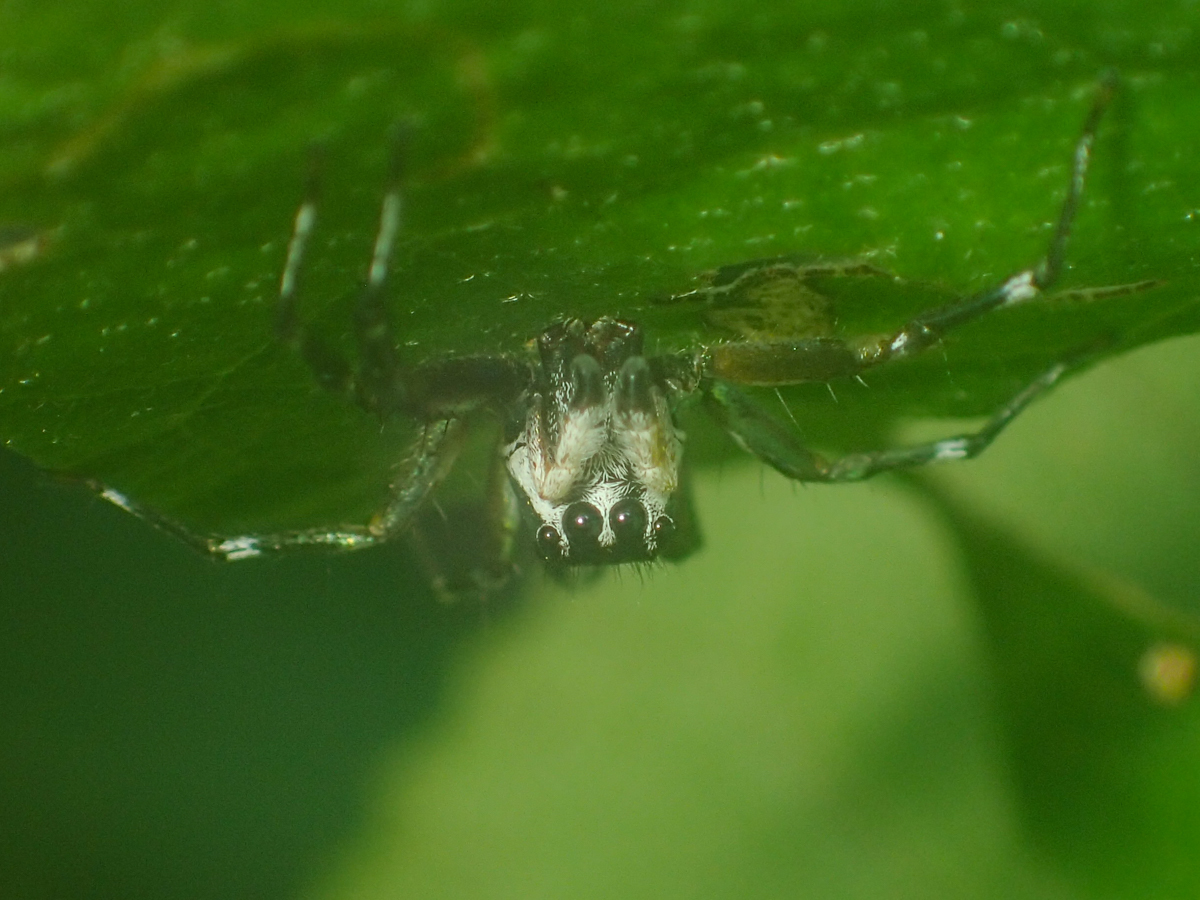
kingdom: Animalia
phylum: Arthropoda
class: Arachnida
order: Araneae
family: Salticidae
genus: Cosmophasis
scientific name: Cosmophasis thalassina
